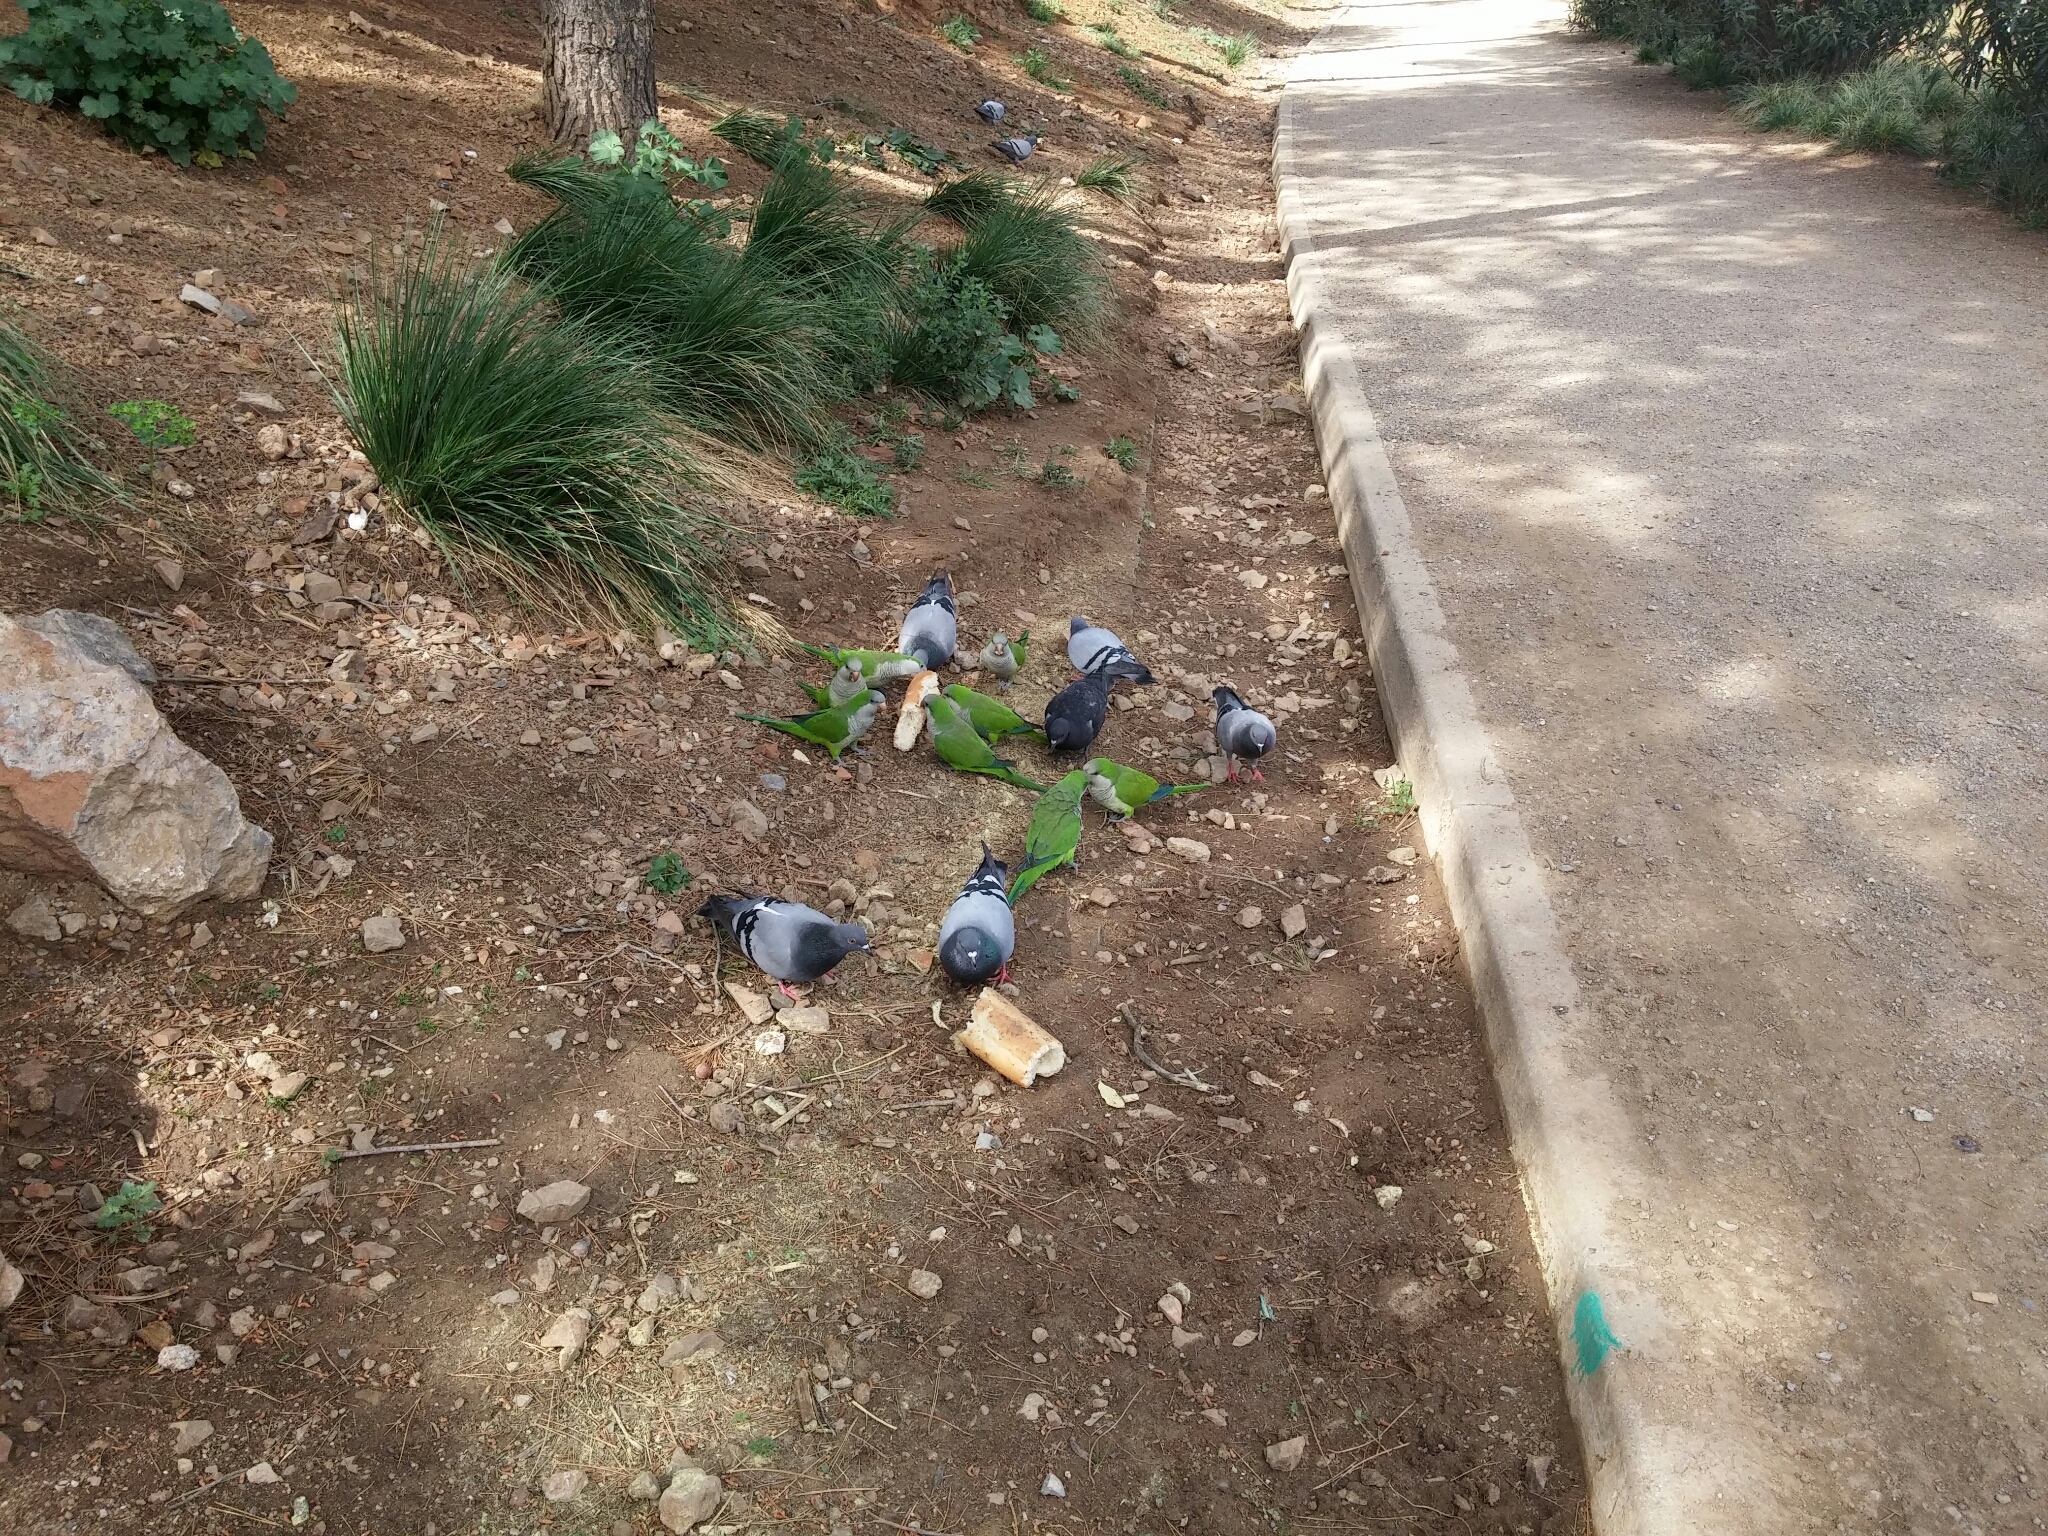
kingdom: Animalia
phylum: Chordata
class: Aves
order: Psittaciformes
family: Psittacidae
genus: Myiopsitta
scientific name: Myiopsitta monachus
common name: Monk parakeet
